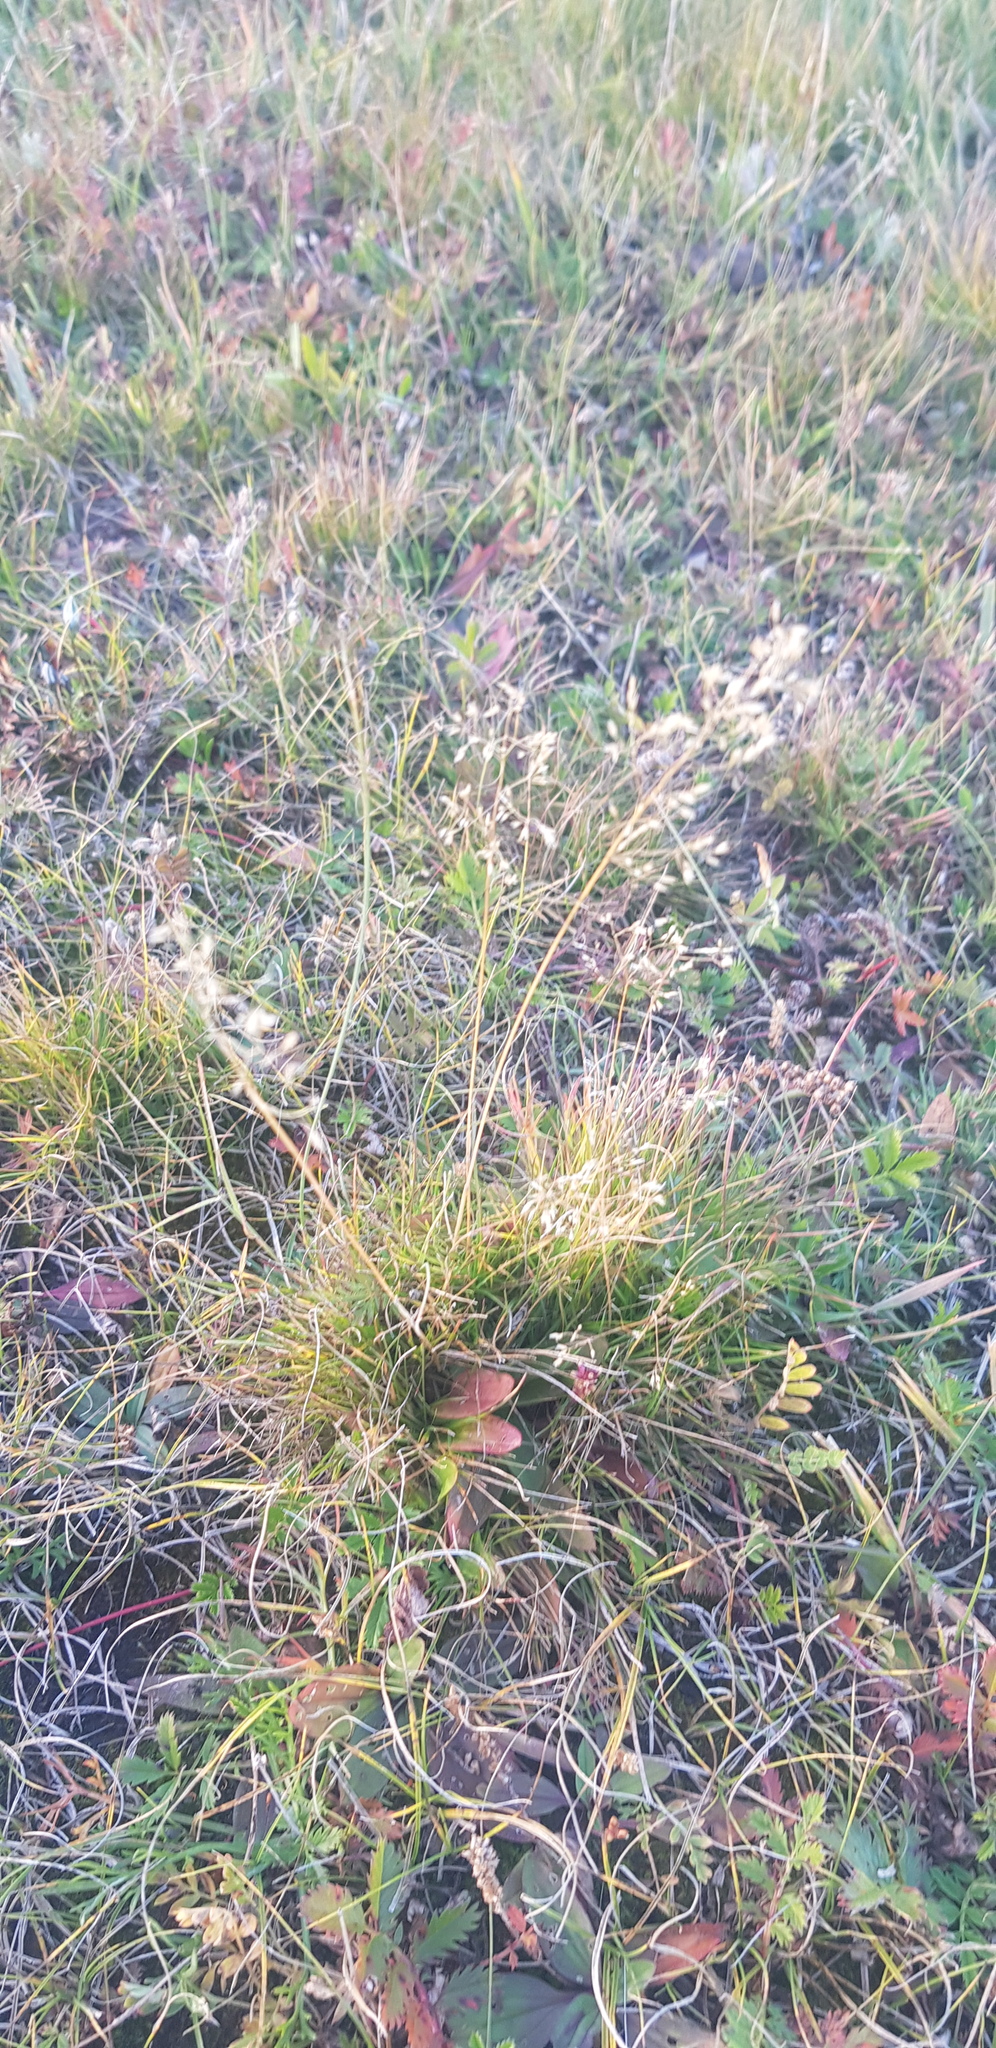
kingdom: Plantae
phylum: Tracheophyta
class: Liliopsida
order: Poales
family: Poaceae
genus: Festuca
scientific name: Festuca ovina
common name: Sheep fescue
